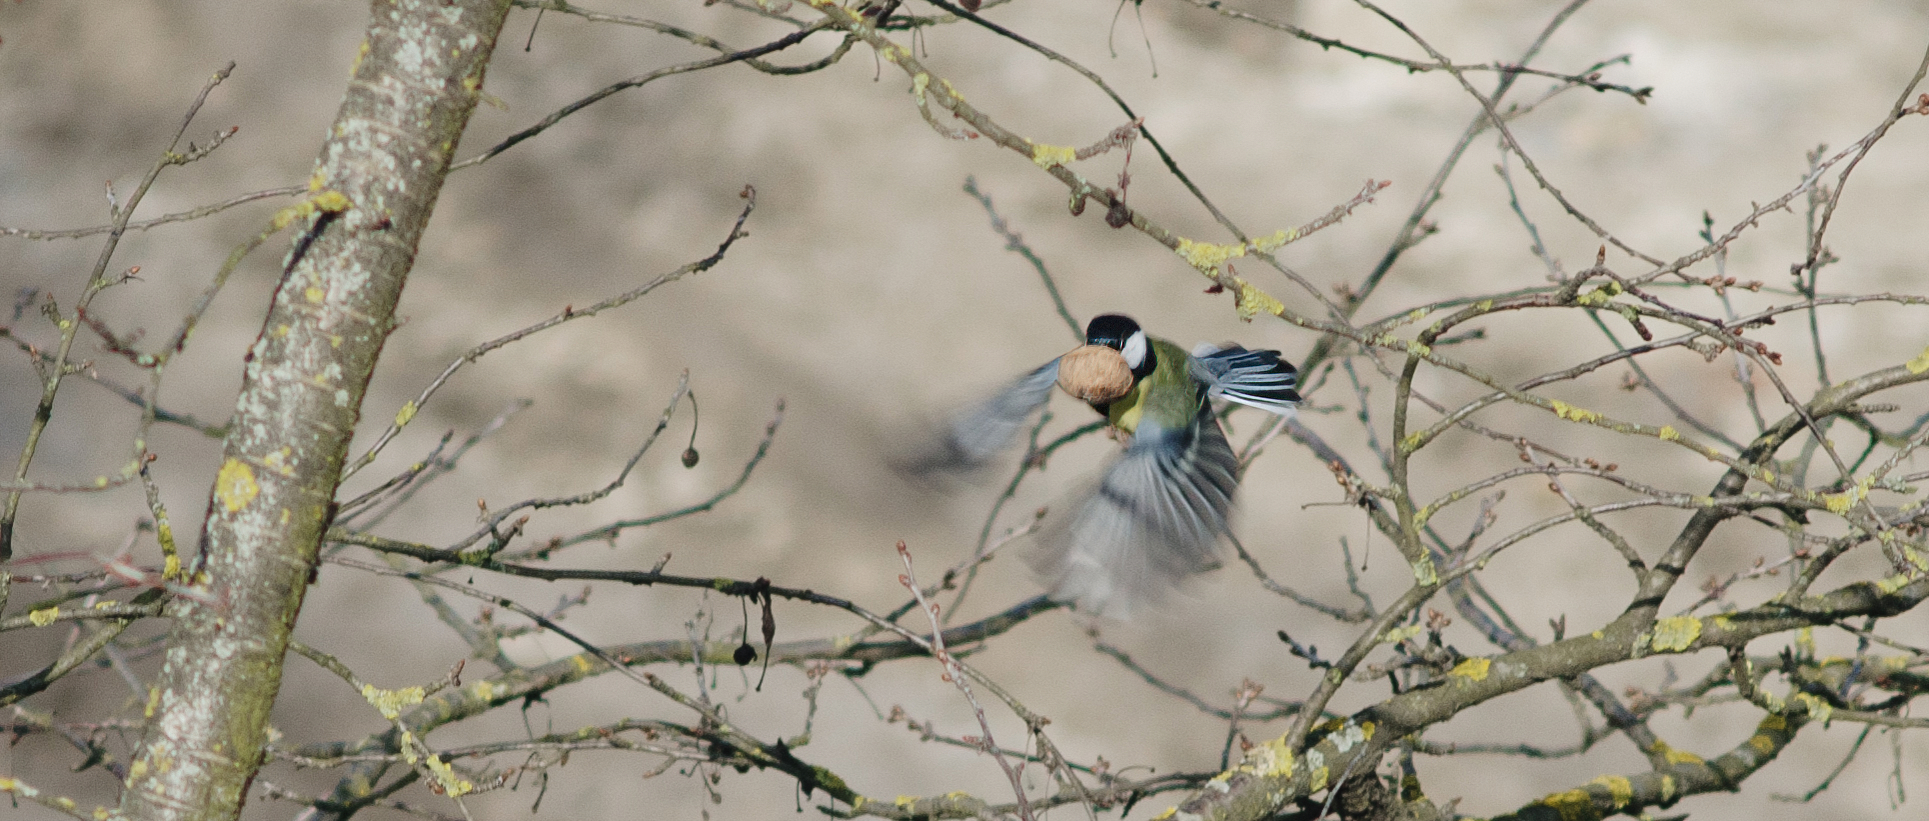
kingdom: Animalia
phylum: Chordata
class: Aves
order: Passeriformes
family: Paridae
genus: Parus
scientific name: Parus major
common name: Great tit
